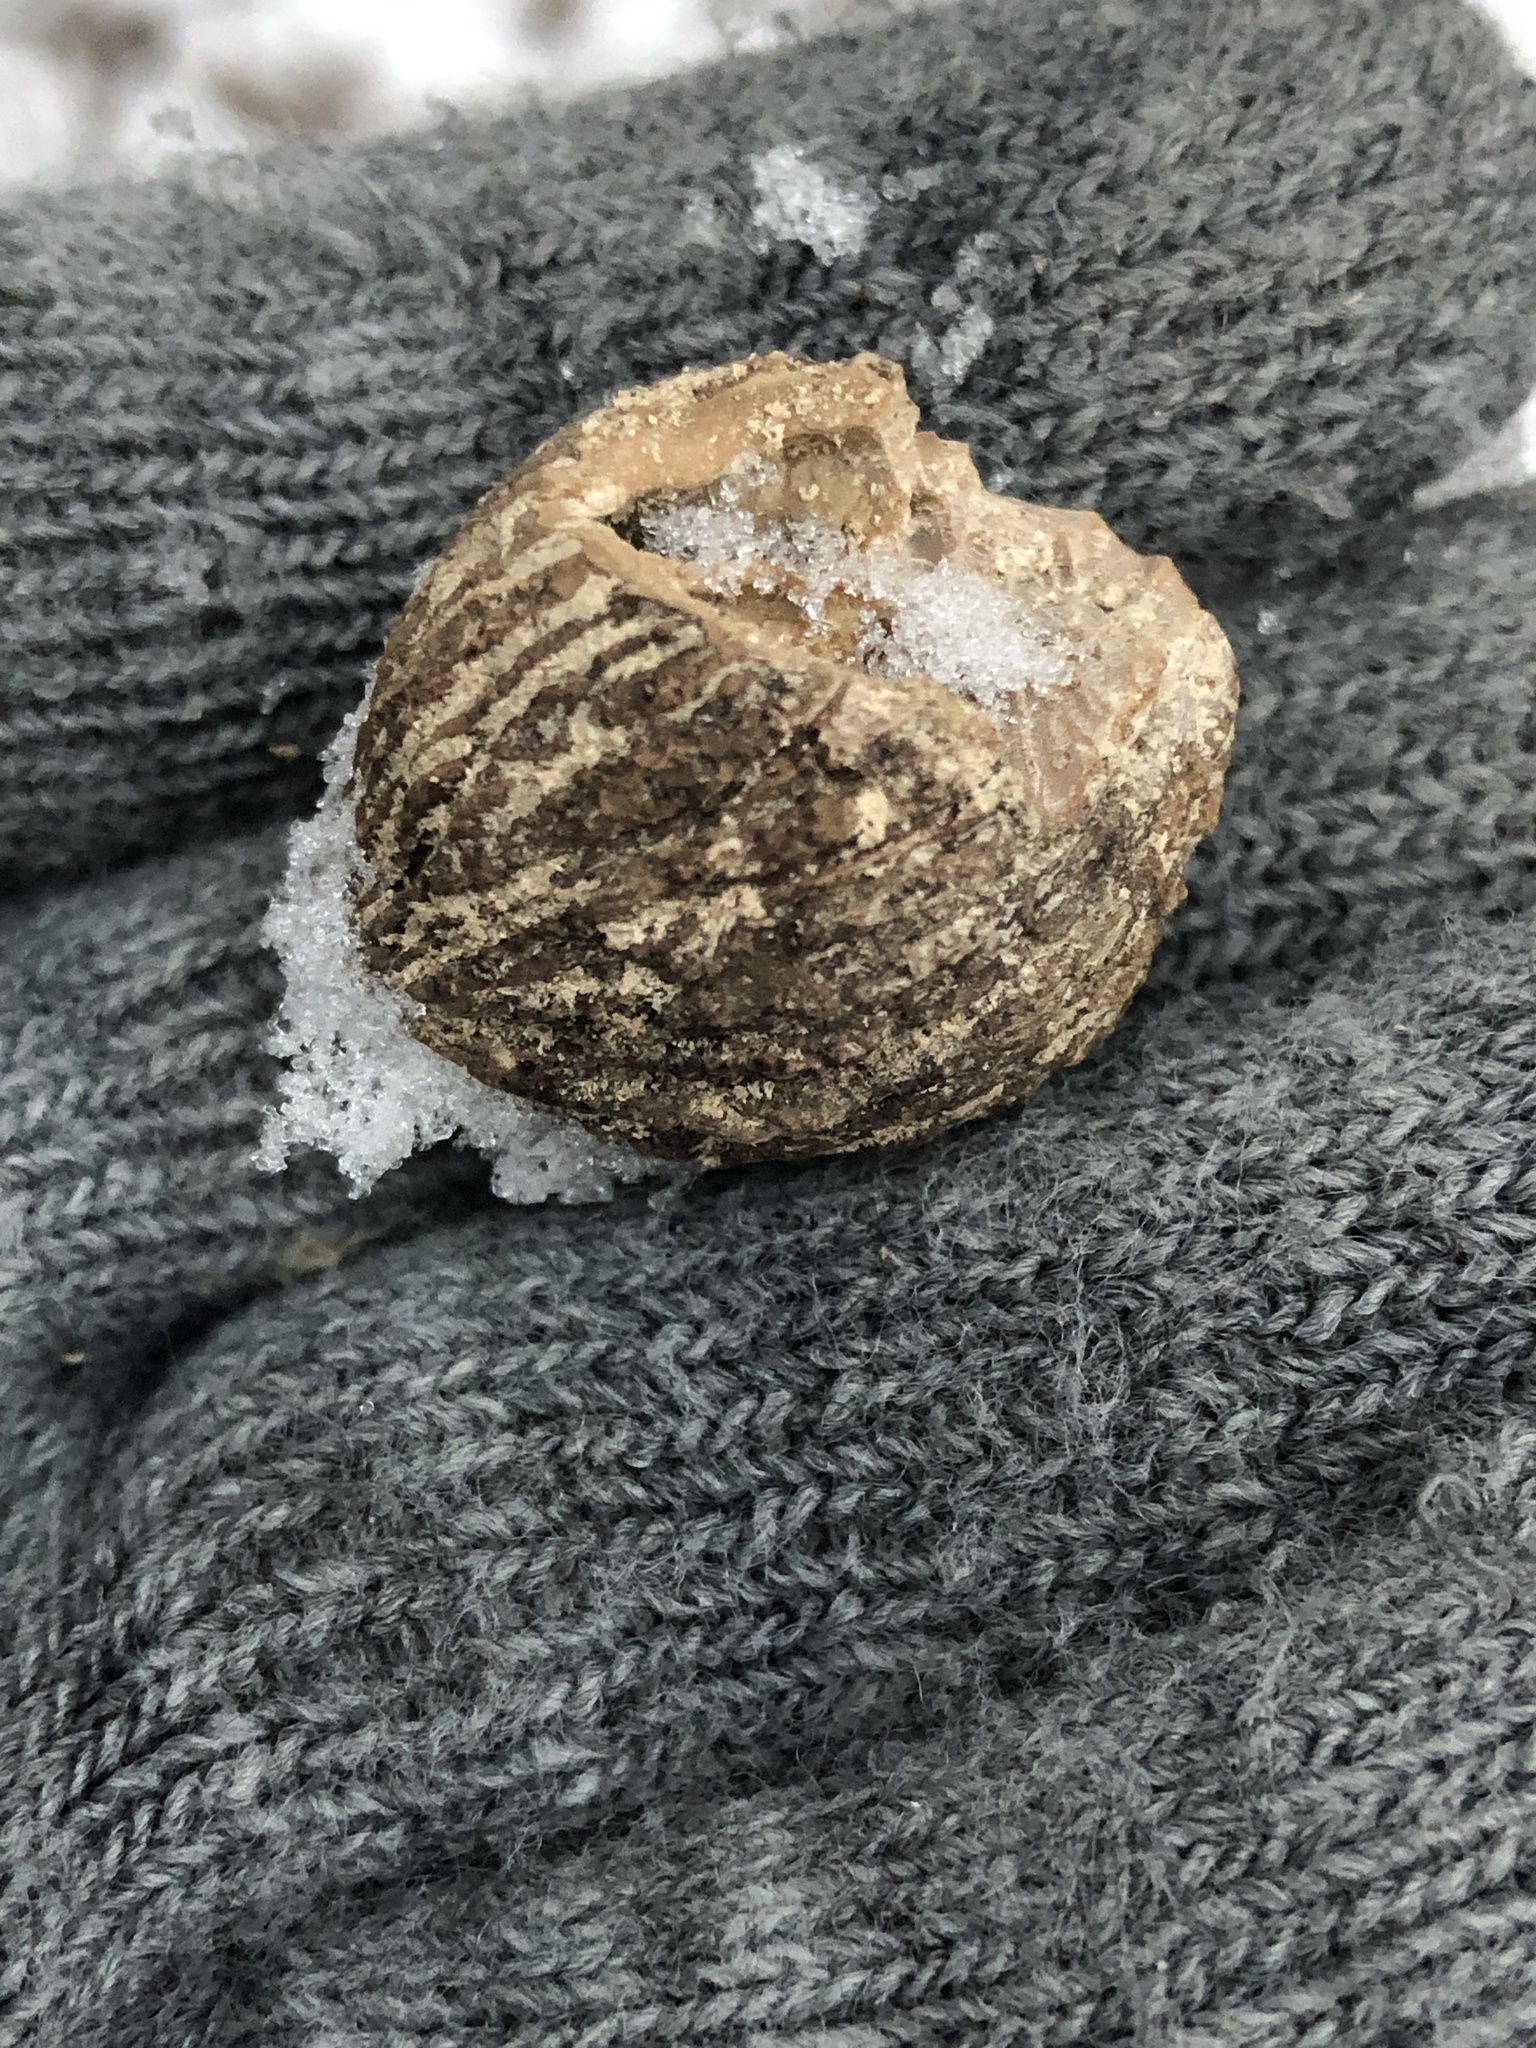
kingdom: Plantae
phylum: Tracheophyta
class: Magnoliopsida
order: Fagales
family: Juglandaceae
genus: Juglans
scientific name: Juglans nigra
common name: Black walnut
